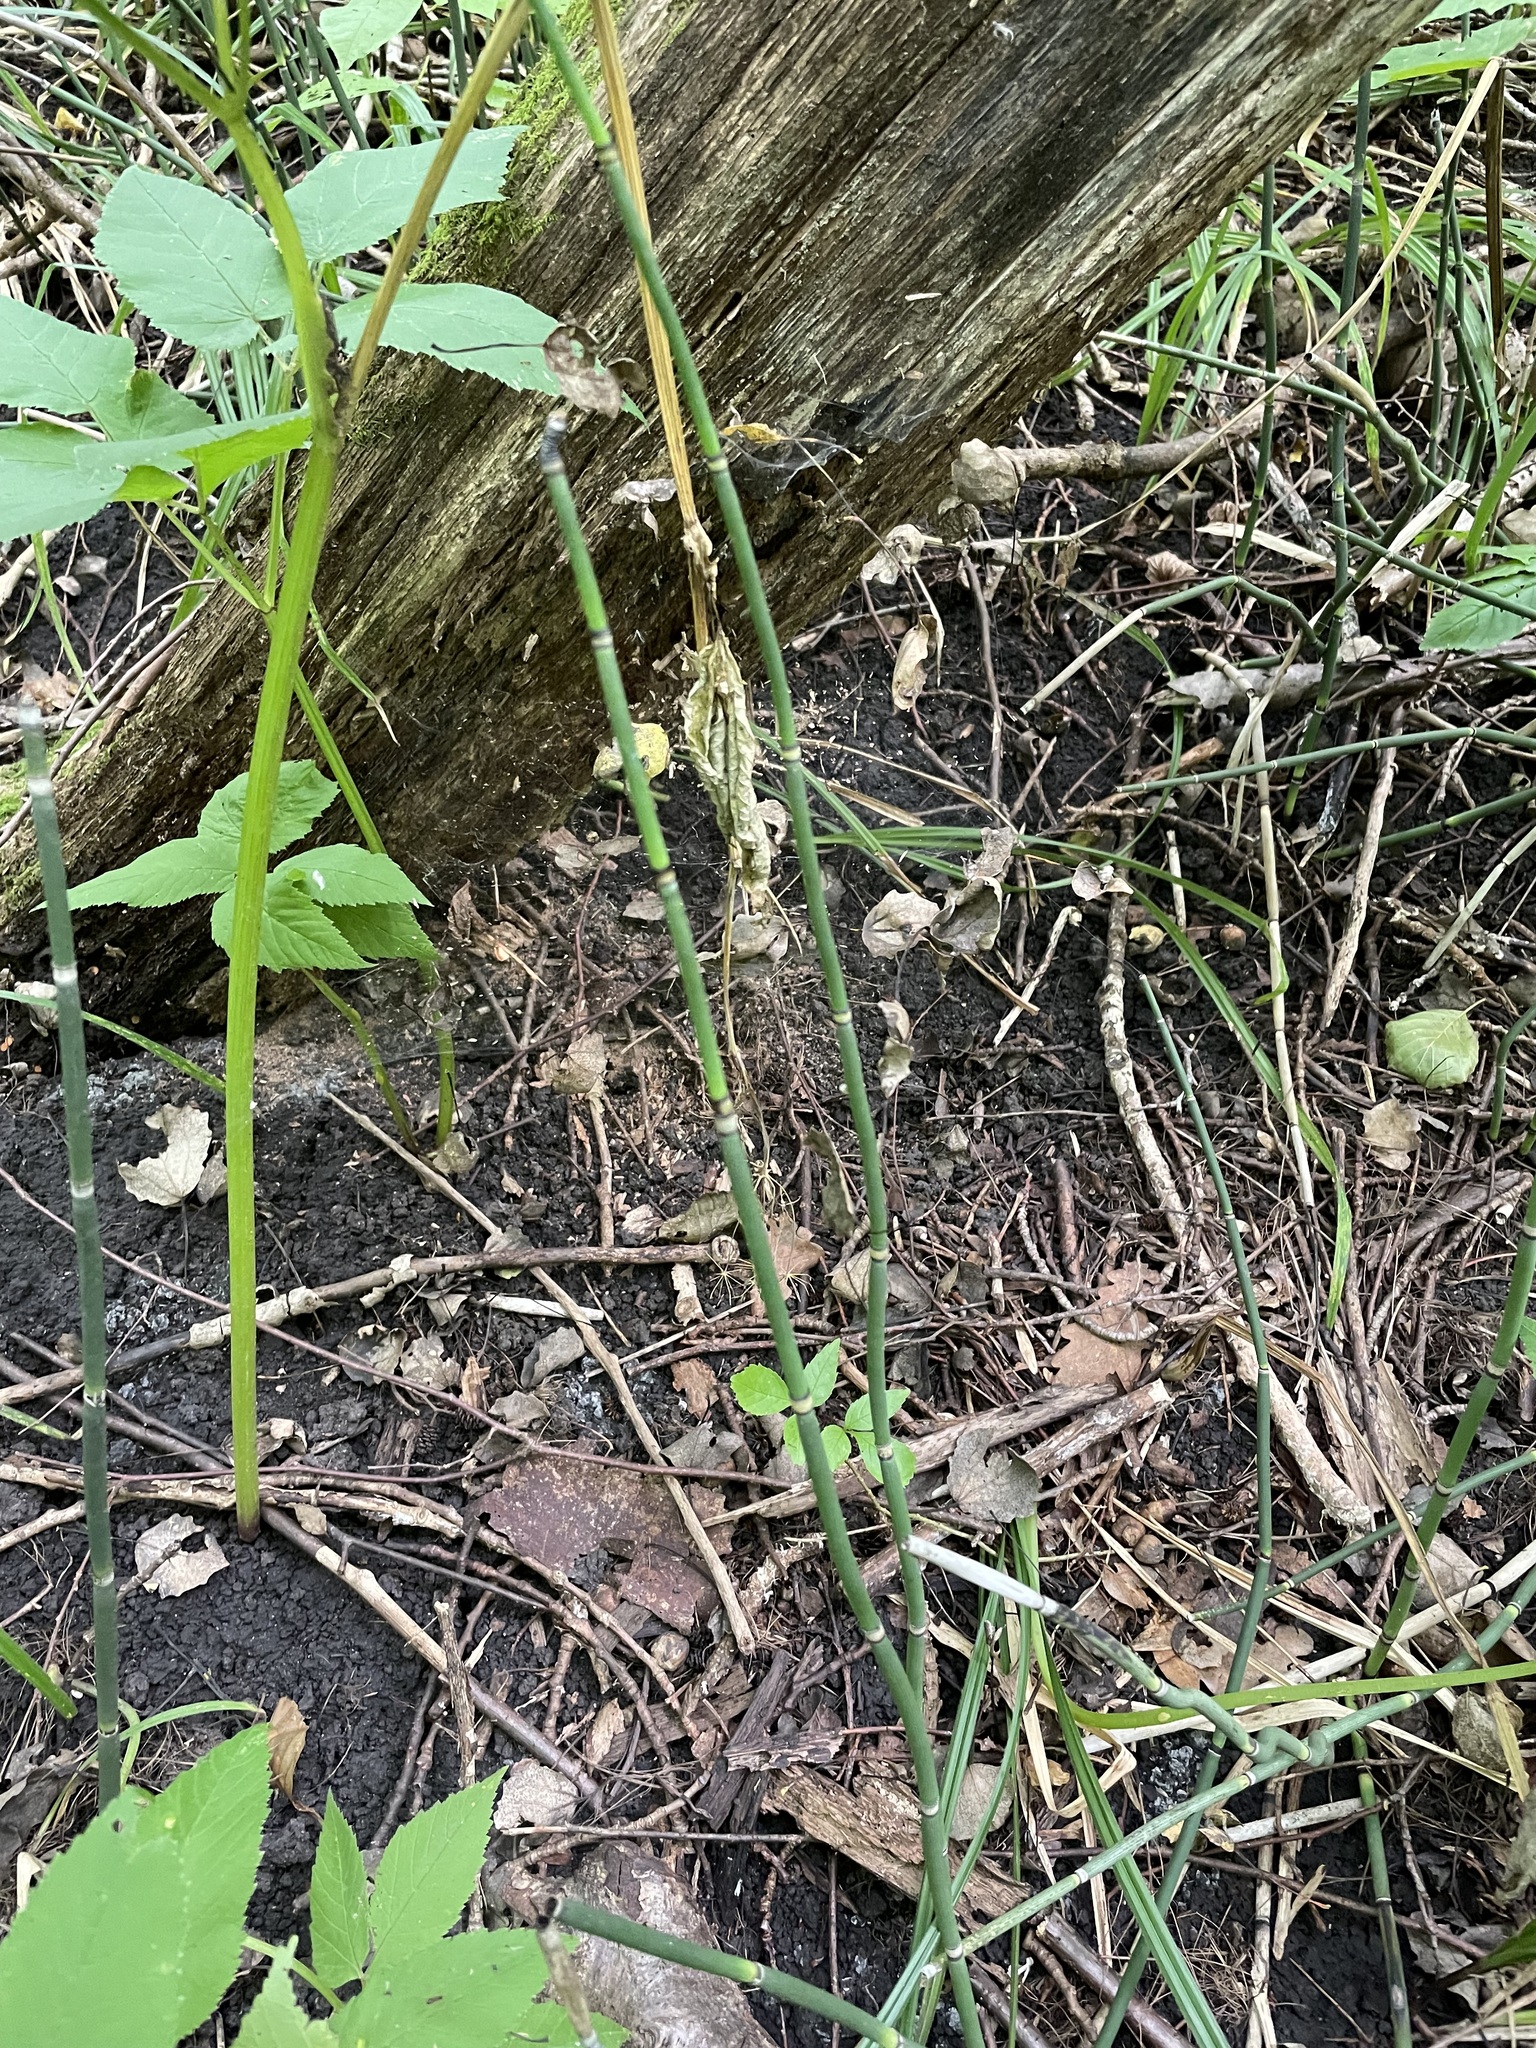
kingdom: Plantae
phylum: Tracheophyta
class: Polypodiopsida
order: Equisetales
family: Equisetaceae
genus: Equisetum
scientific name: Equisetum hyemale
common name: Rough horsetail
